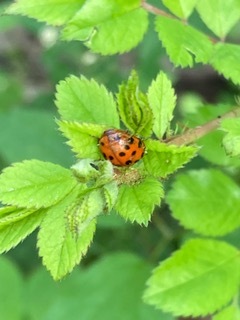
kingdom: Animalia
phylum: Arthropoda
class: Insecta
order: Coleoptera
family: Coccinellidae
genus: Harmonia
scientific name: Harmonia axyridis
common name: Harlequin ladybird
